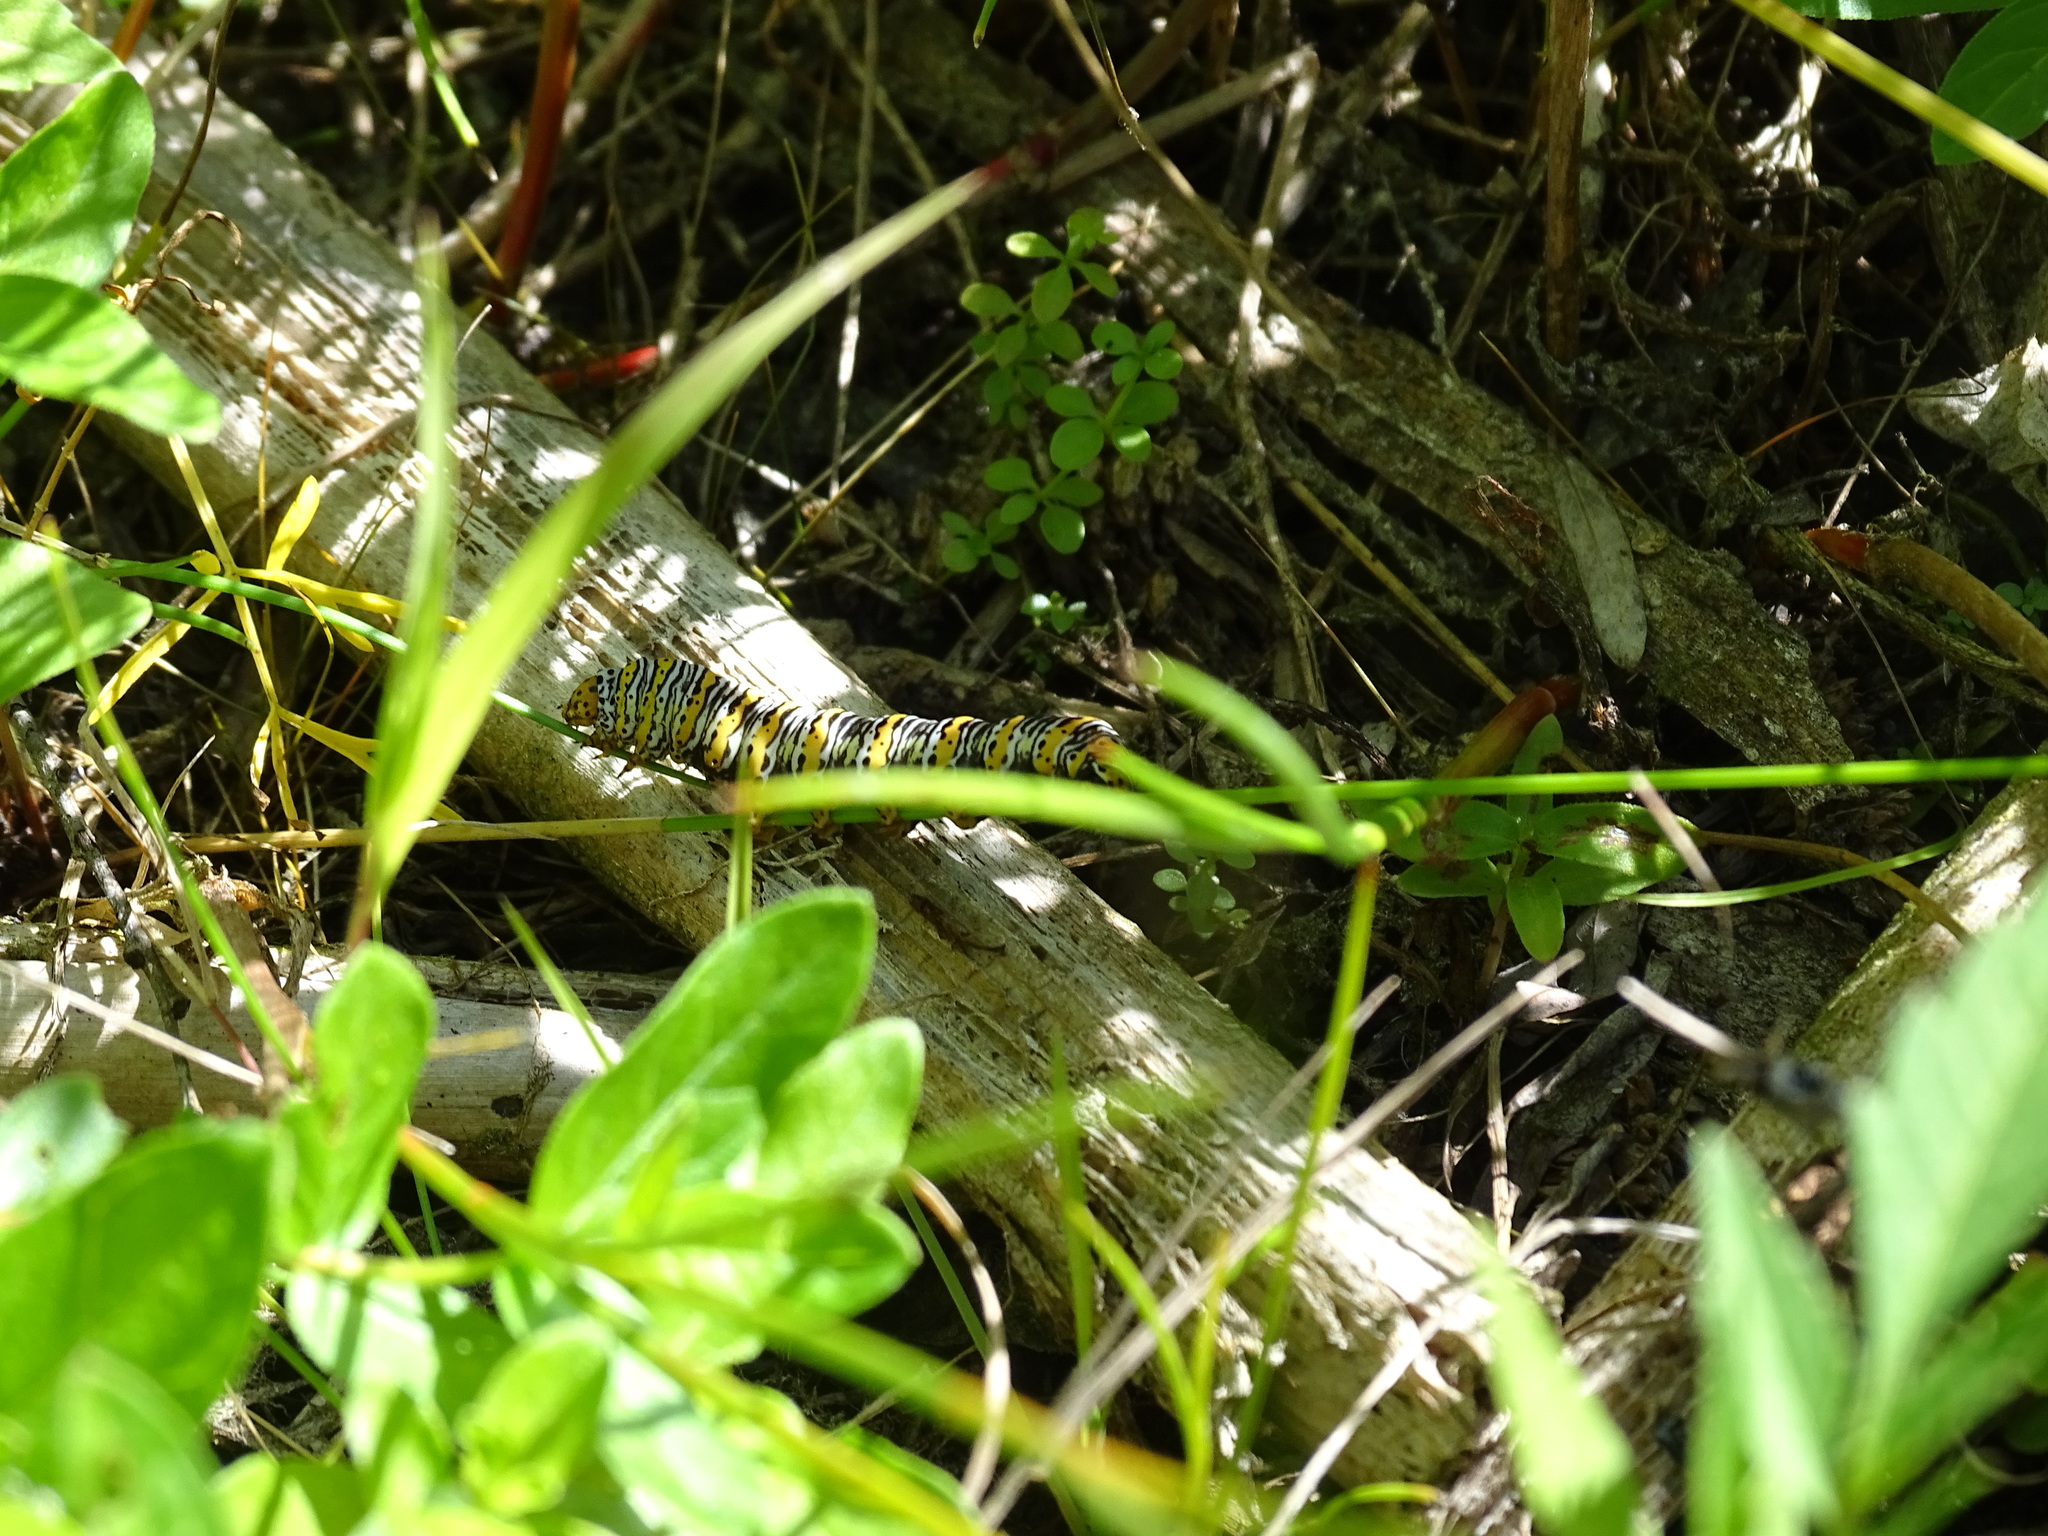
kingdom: Animalia
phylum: Arthropoda
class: Insecta
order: Lepidoptera
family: Noctuidae
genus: Eudryas
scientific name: Eudryas unio
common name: Pearly wood-nymph
